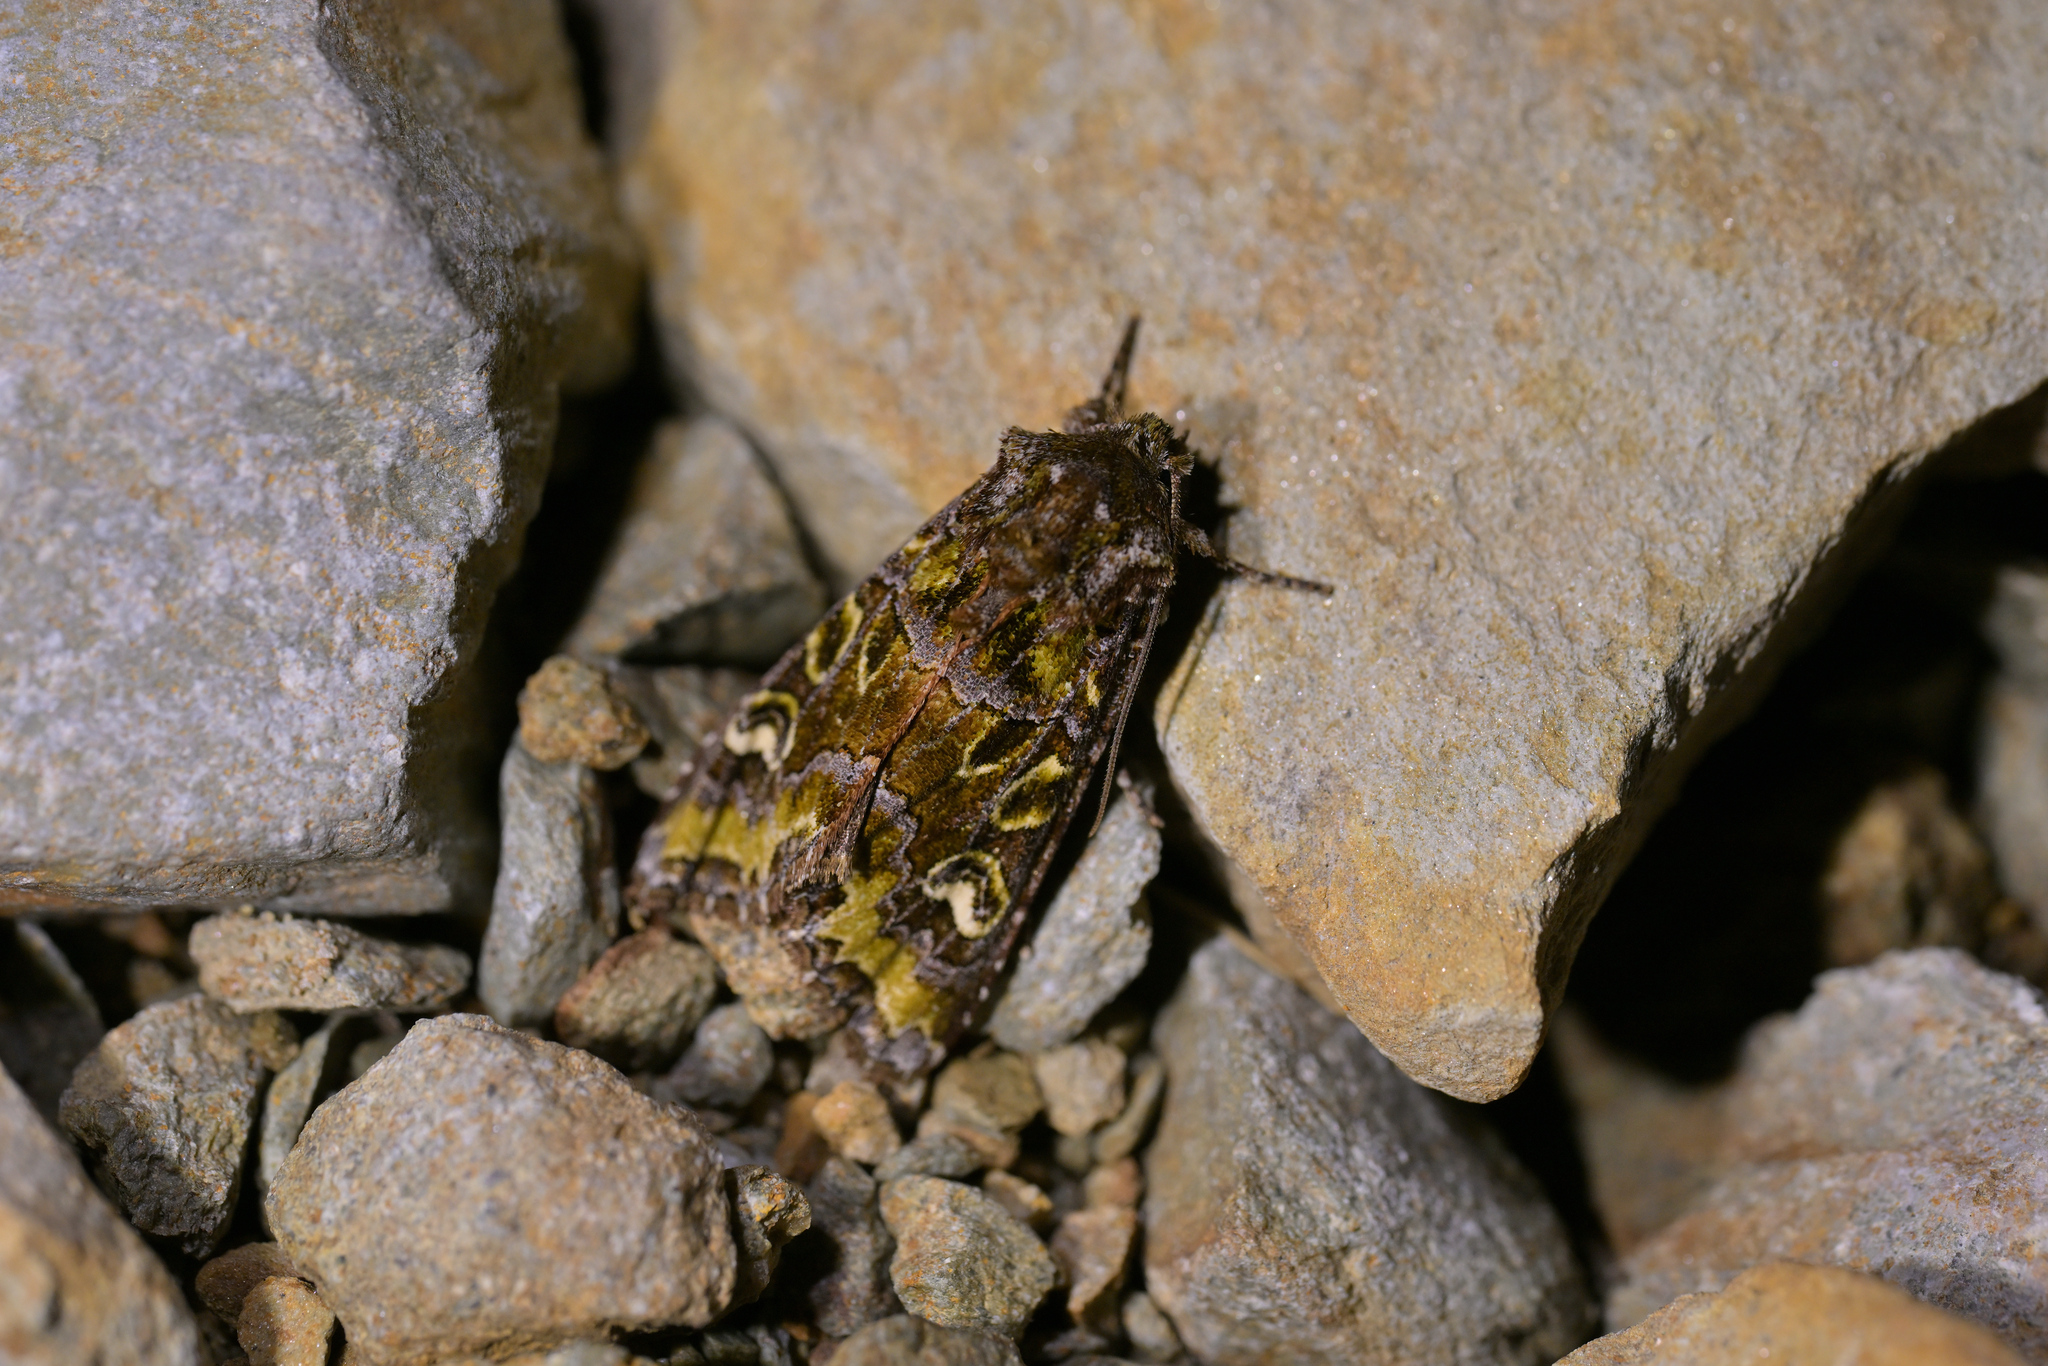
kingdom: Animalia
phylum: Arthropoda
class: Insecta
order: Lepidoptera
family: Noctuidae
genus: Ichneutica
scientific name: Ichneutica chlorodonta
